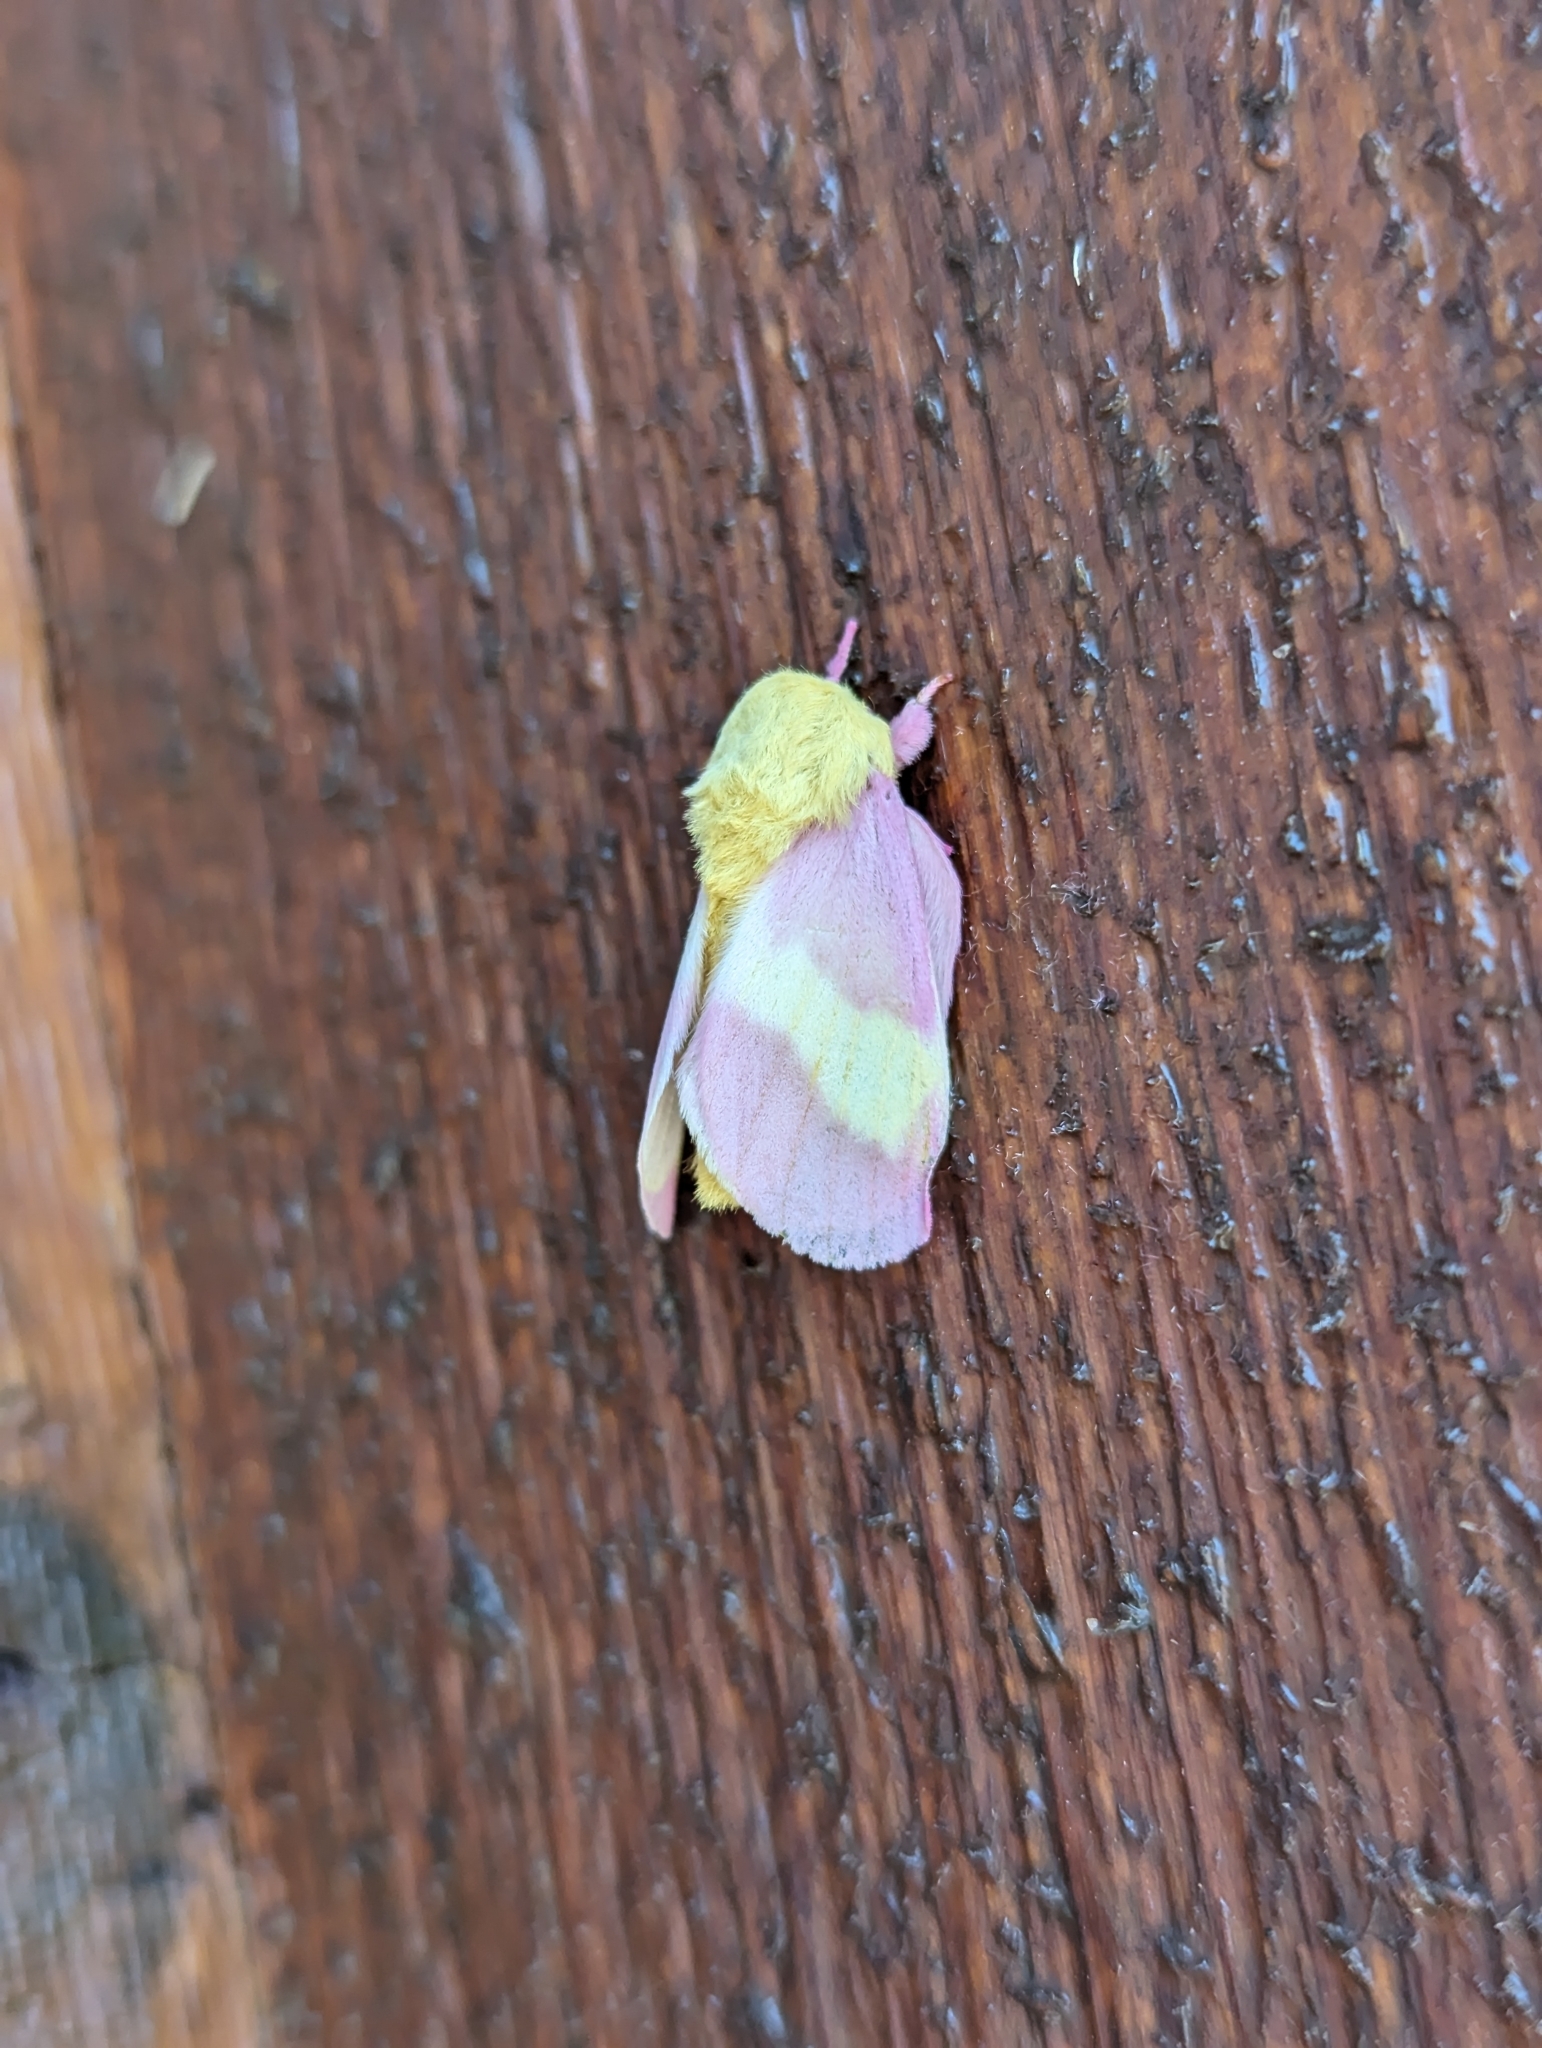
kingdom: Animalia
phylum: Arthropoda
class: Insecta
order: Lepidoptera
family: Saturniidae
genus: Dryocampa
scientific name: Dryocampa rubicunda
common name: Rosy maple moth
